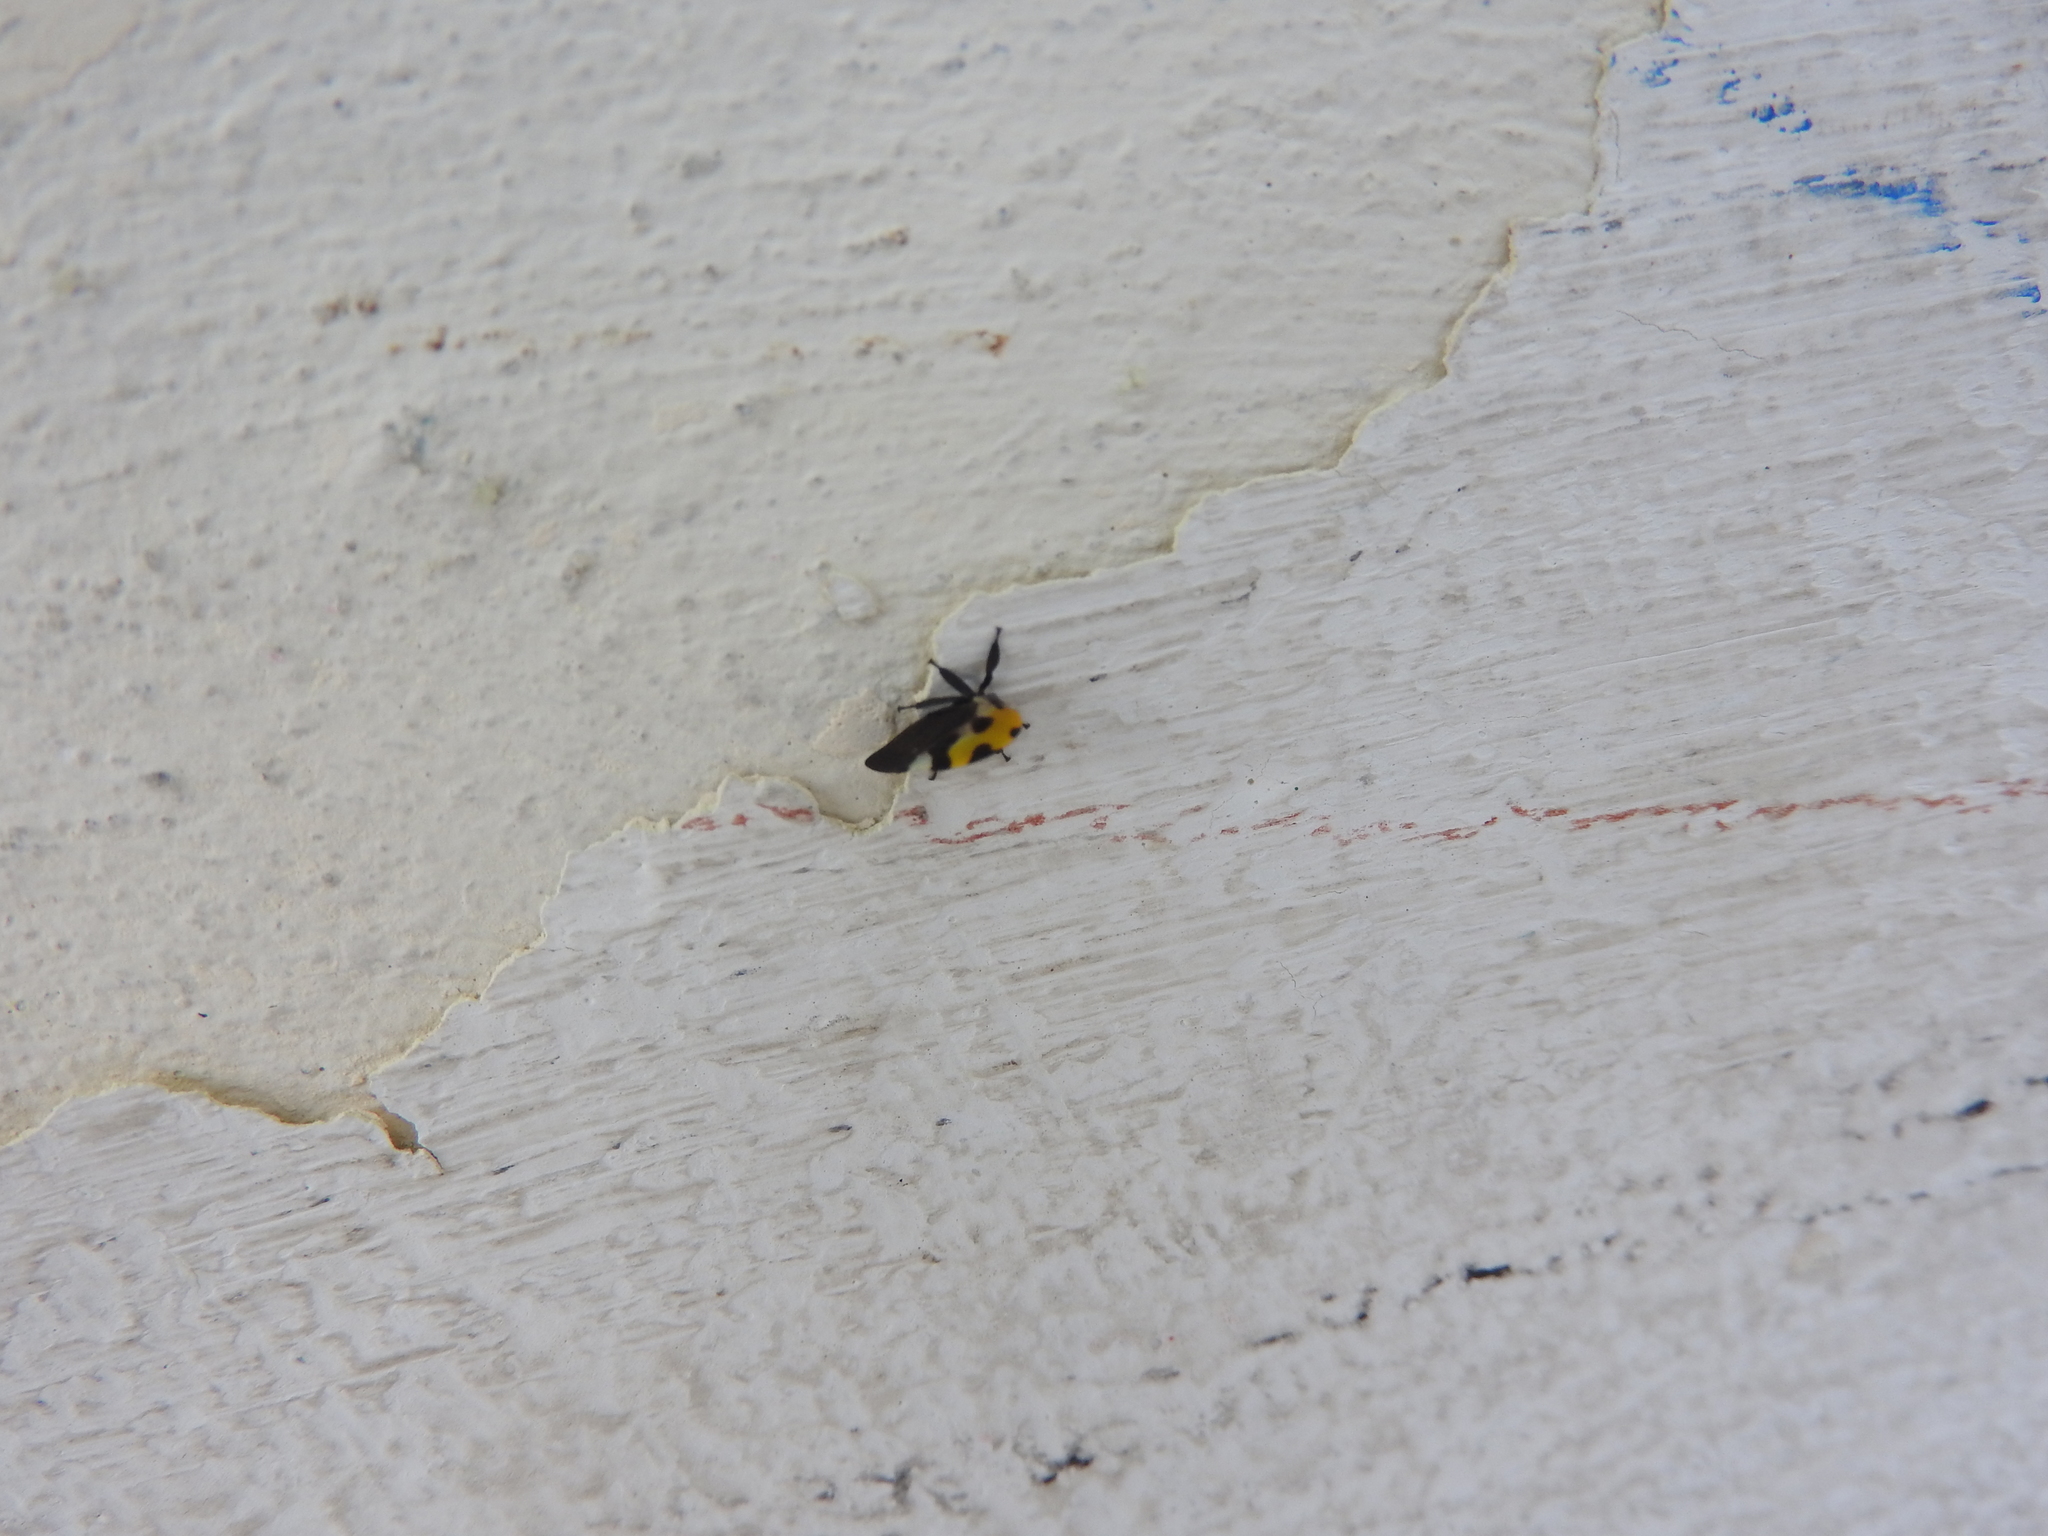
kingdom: Animalia
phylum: Arthropoda
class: Insecta
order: Hemiptera
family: Membracidae
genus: Membracis
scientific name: Membracis mexicana
